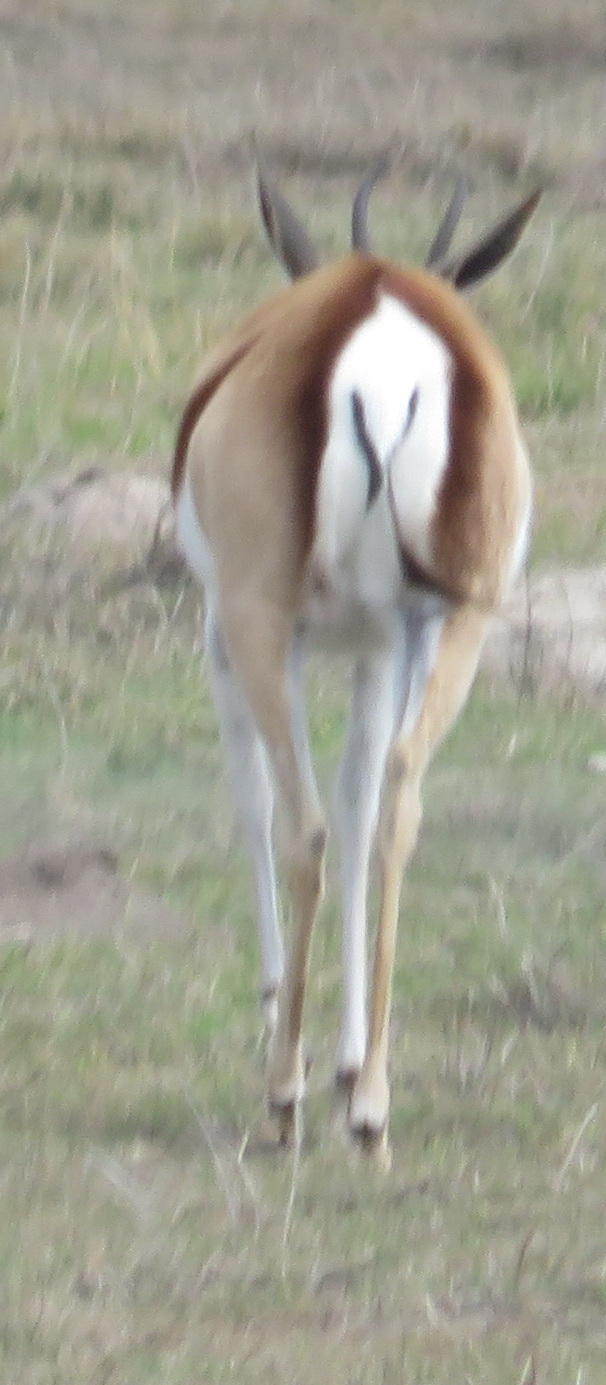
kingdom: Animalia
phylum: Chordata
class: Mammalia
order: Artiodactyla
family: Bovidae
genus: Antidorcas
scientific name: Antidorcas marsupialis
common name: Springbok
